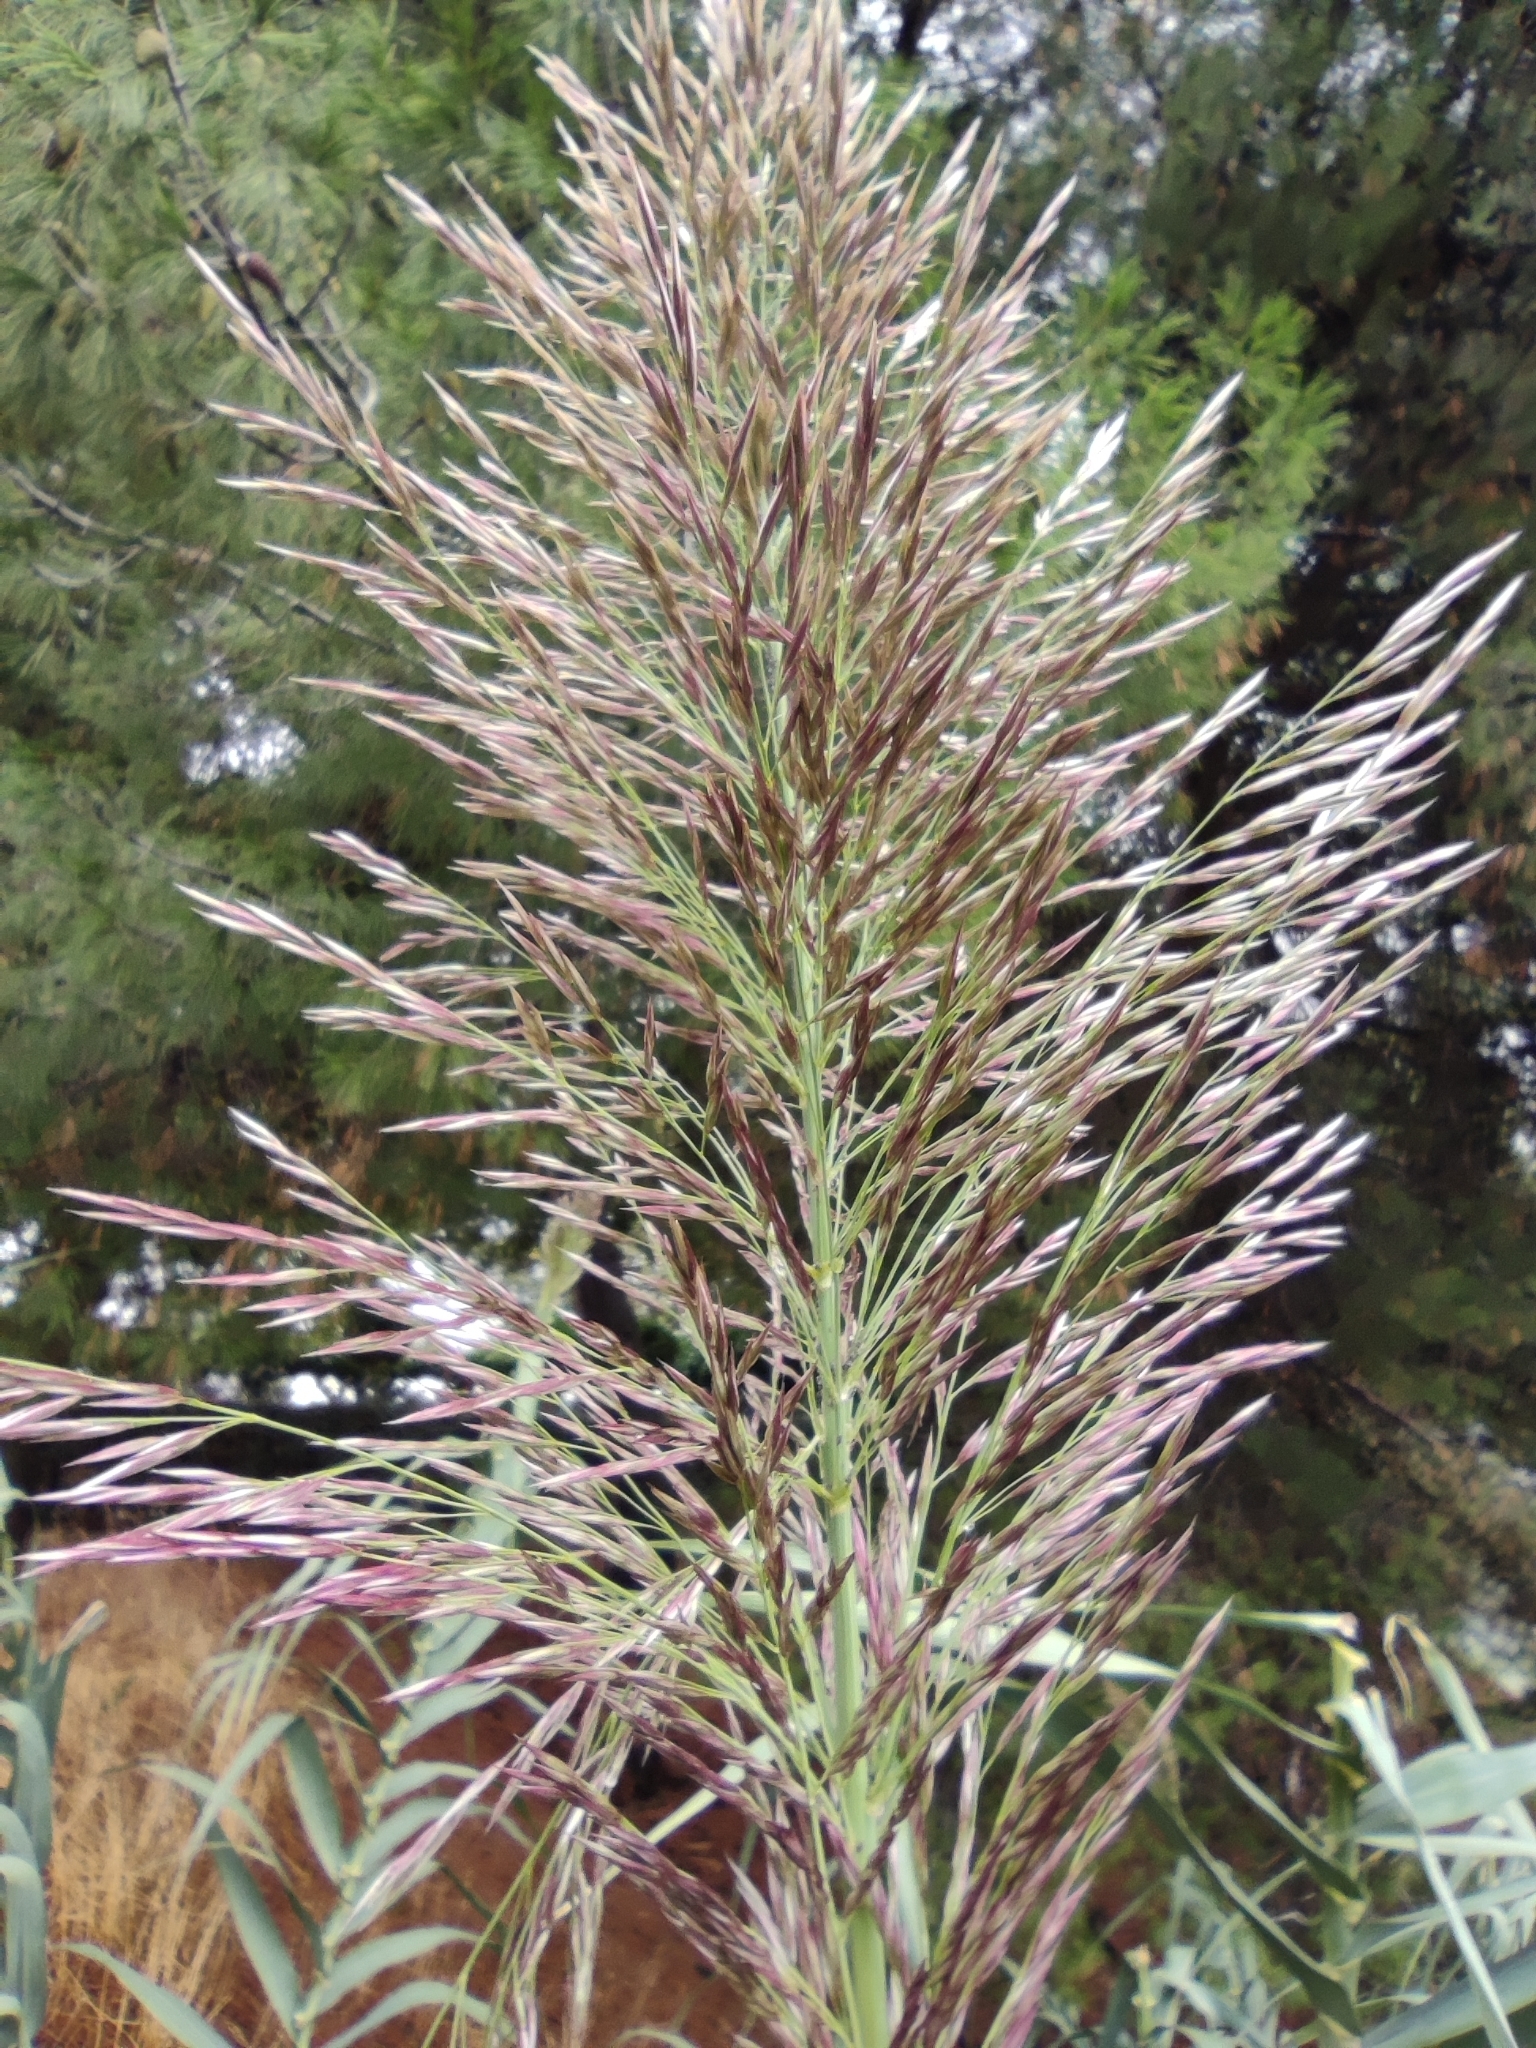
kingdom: Plantae
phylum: Tracheophyta
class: Liliopsida
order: Poales
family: Poaceae
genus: Arundo
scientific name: Arundo donax
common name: Giant reed
